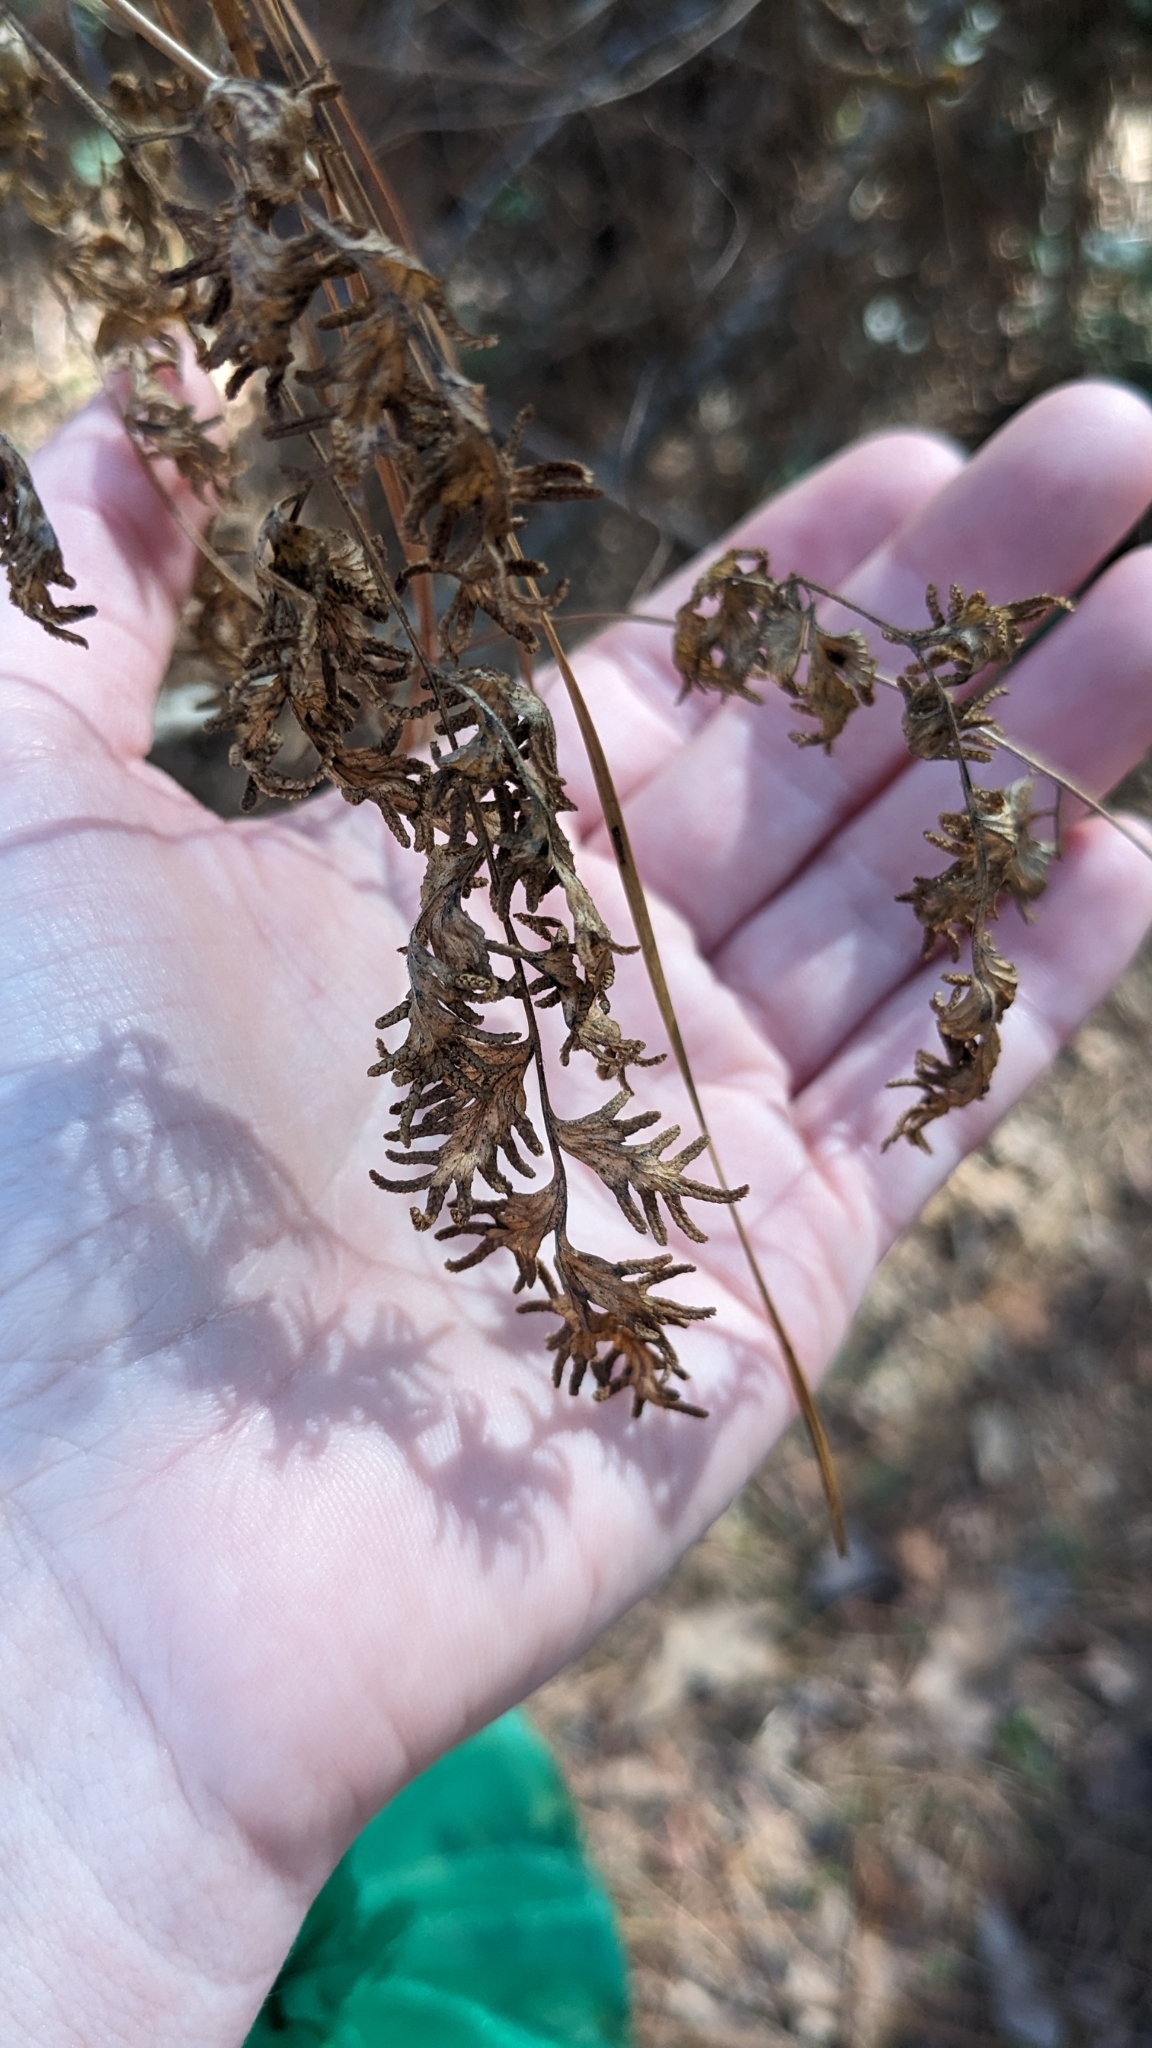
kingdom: Plantae
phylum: Tracheophyta
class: Polypodiopsida
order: Schizaeales
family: Lygodiaceae
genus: Lygodium
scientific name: Lygodium japonicum
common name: Japanese climbing fern
